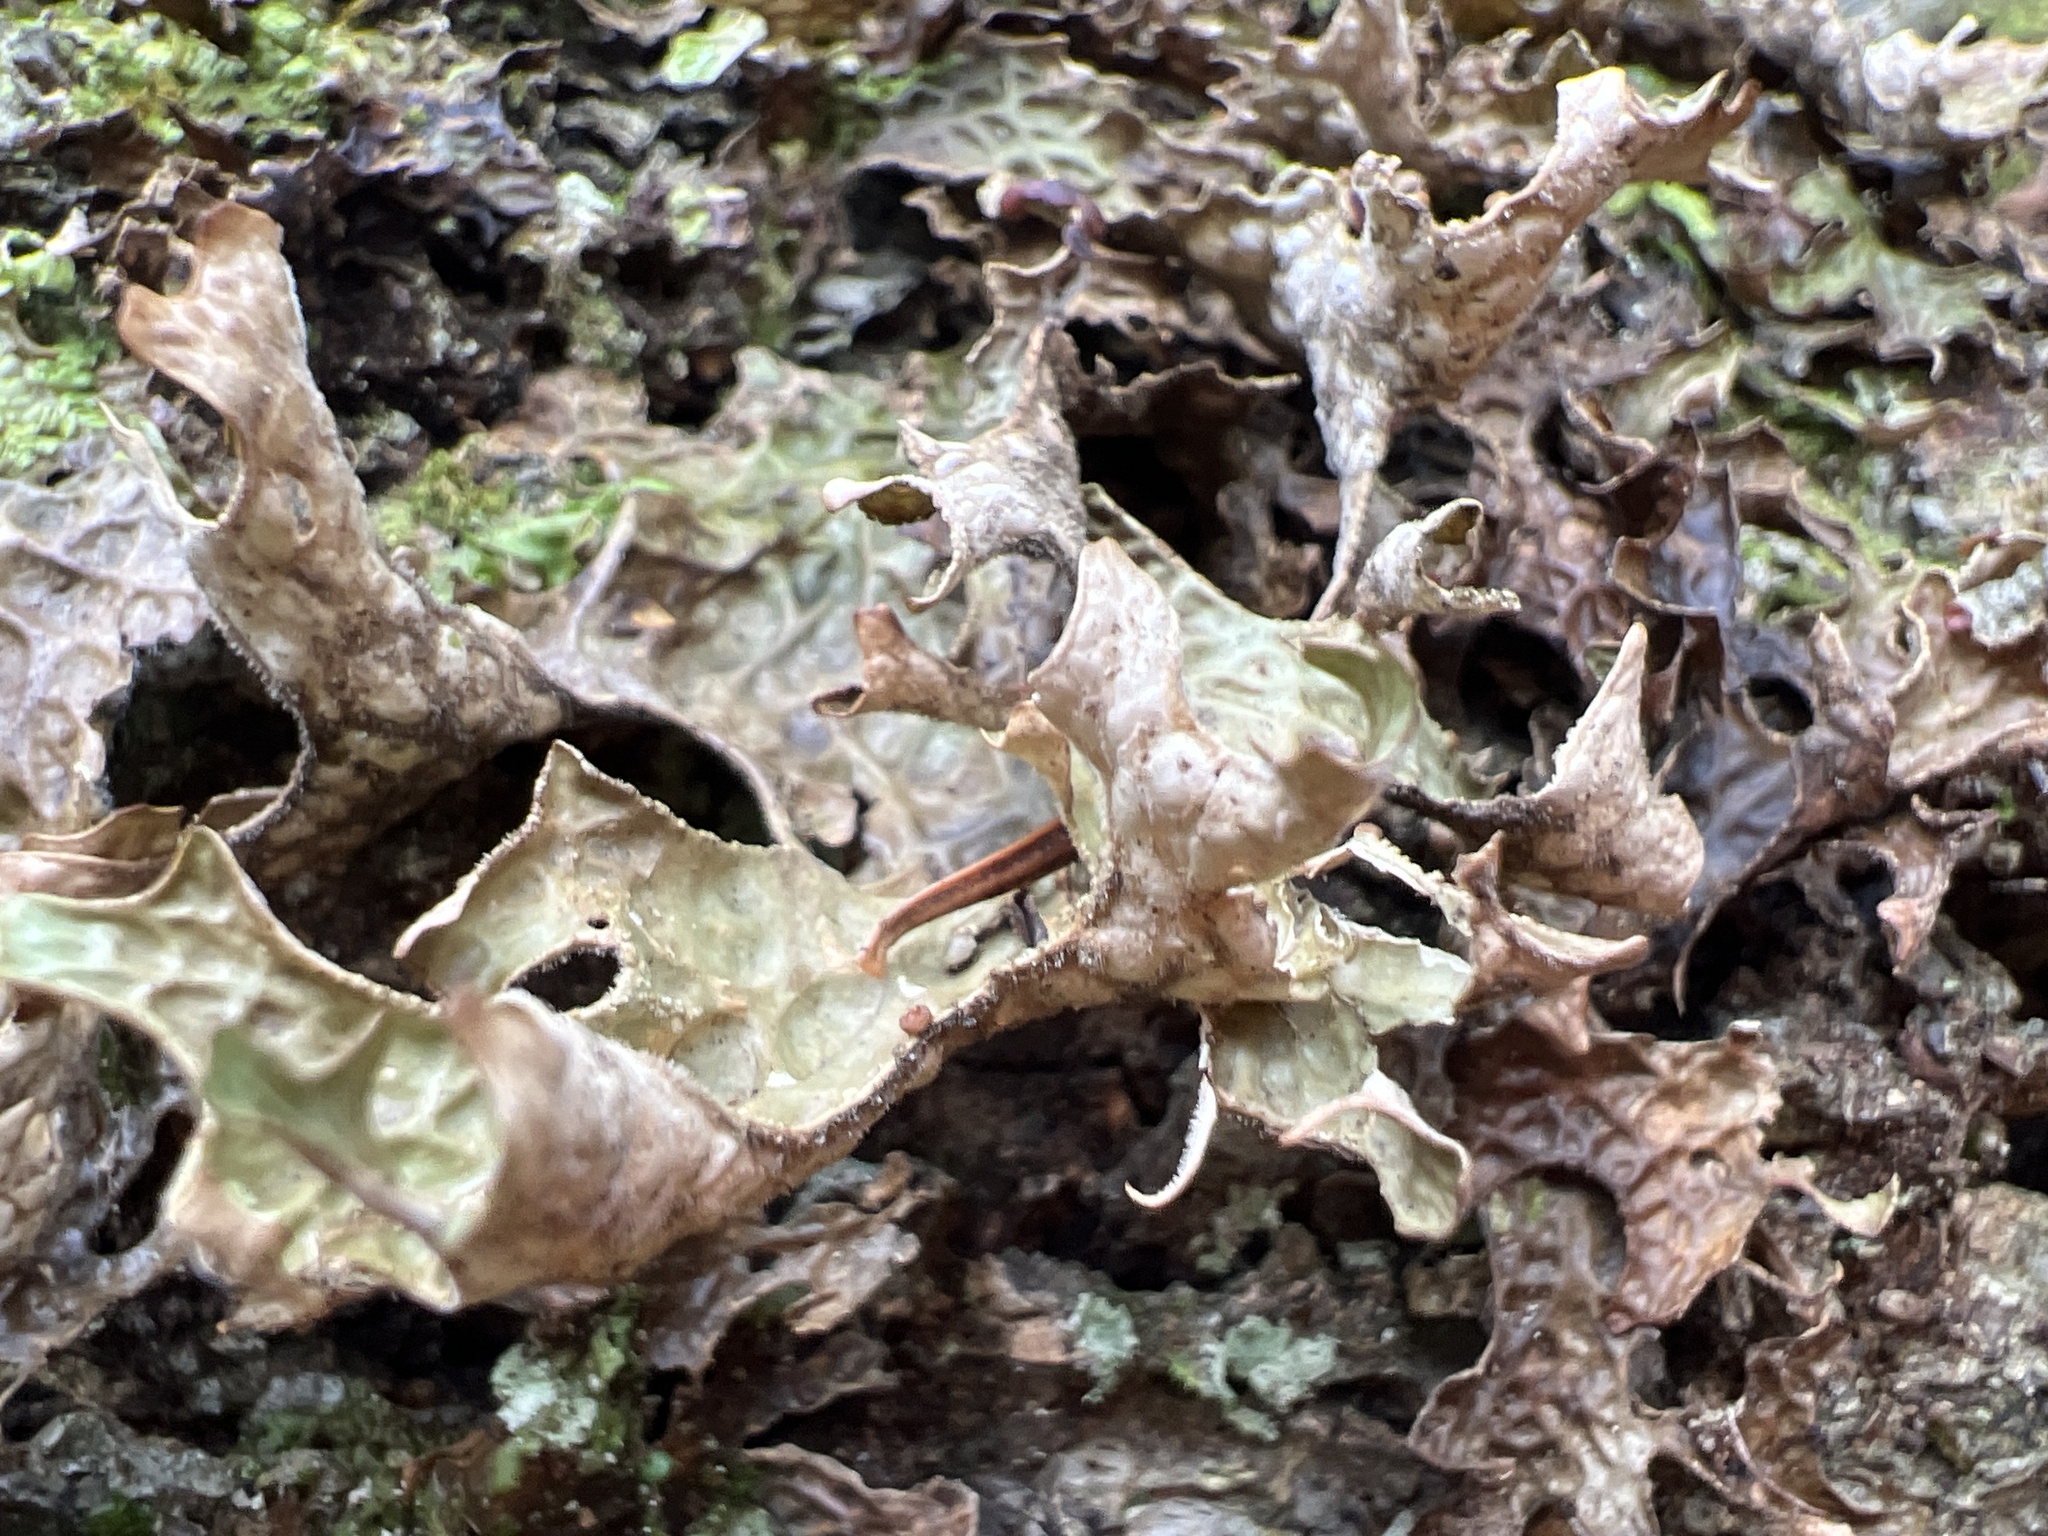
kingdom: Fungi
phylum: Ascomycota
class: Lecanoromycetes
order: Peltigerales
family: Lobariaceae
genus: Lobaria
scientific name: Lobaria pulmonaria
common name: Lungwort
